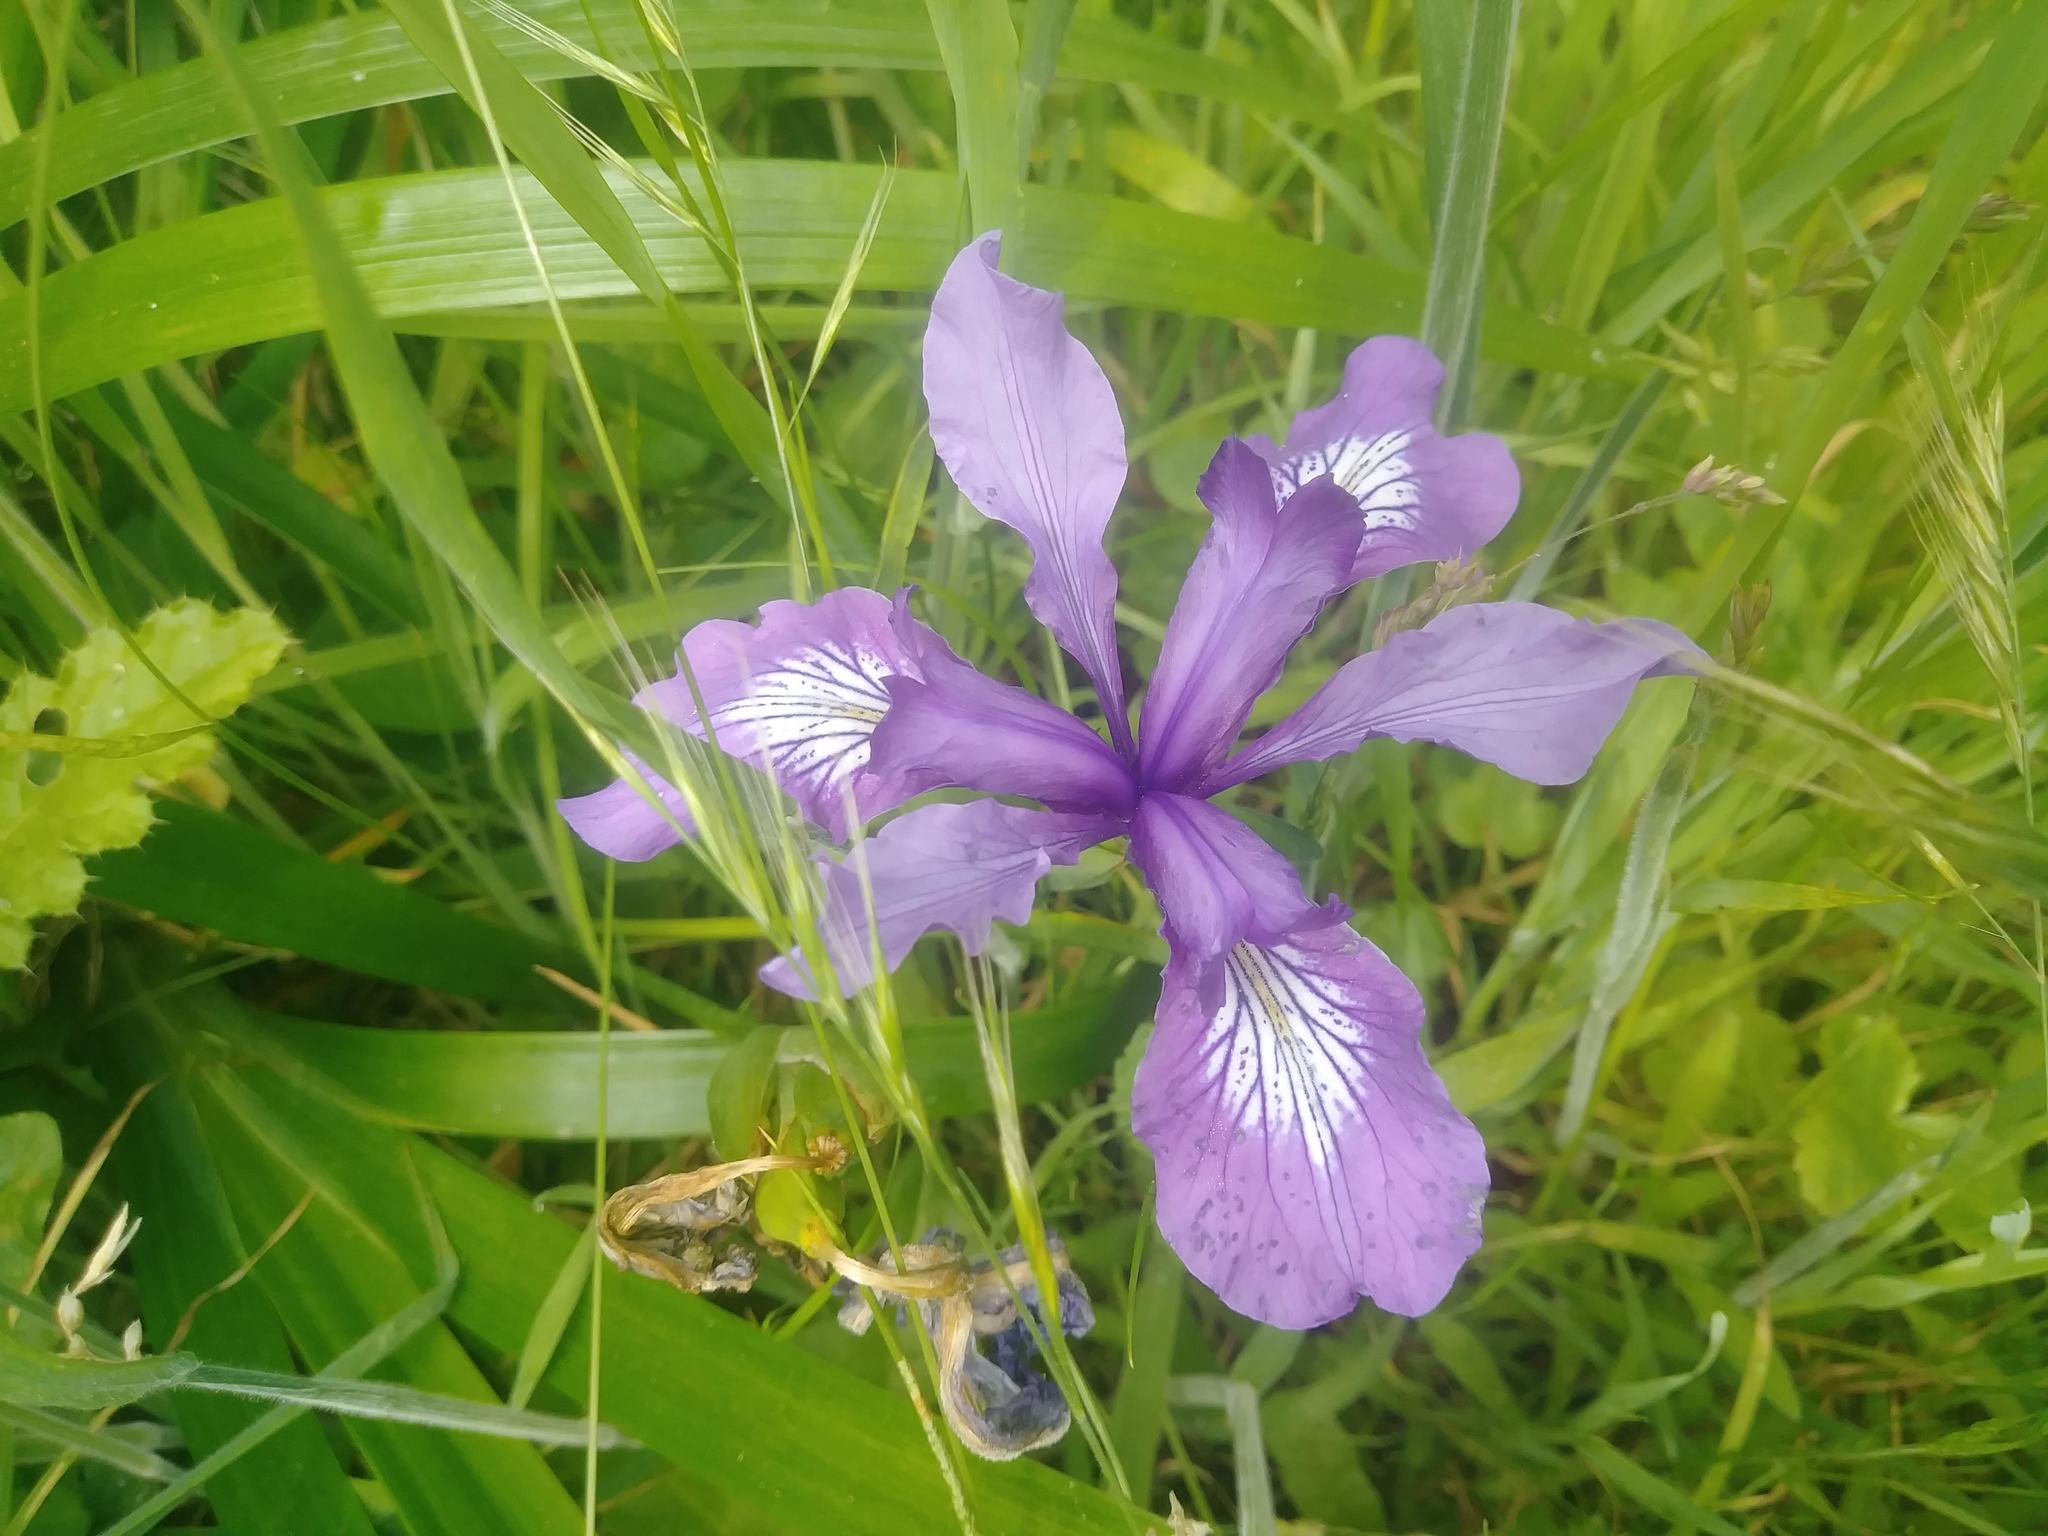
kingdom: Plantae
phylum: Tracheophyta
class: Liliopsida
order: Asparagales
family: Iridaceae
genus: Iris
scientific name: Iris douglasiana
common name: Marin iris
